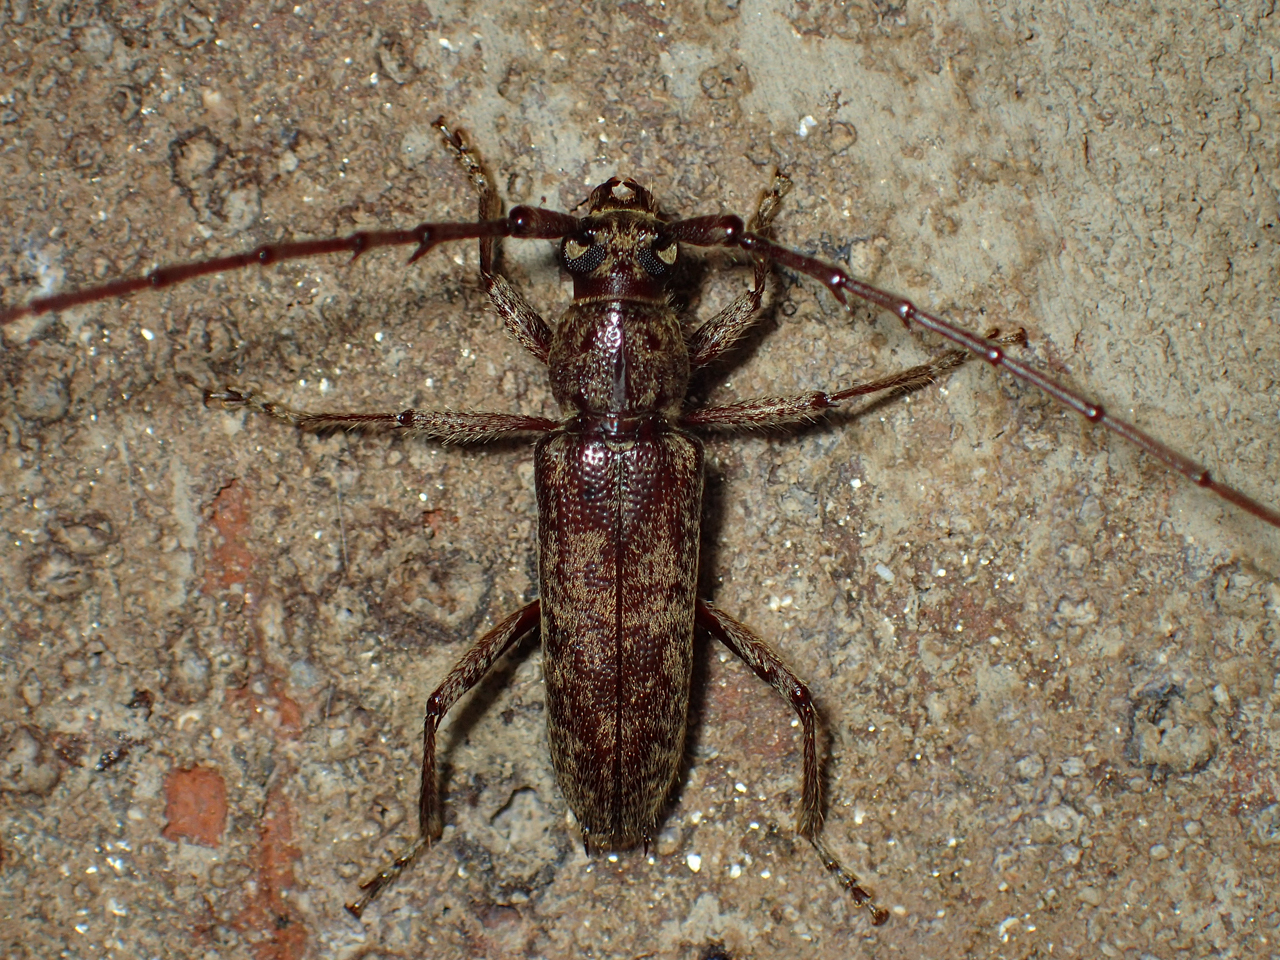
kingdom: Animalia
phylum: Arthropoda
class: Insecta
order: Coleoptera
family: Cerambycidae
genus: Elaphidion
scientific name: Elaphidion mucronatum
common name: Spined oak borer
